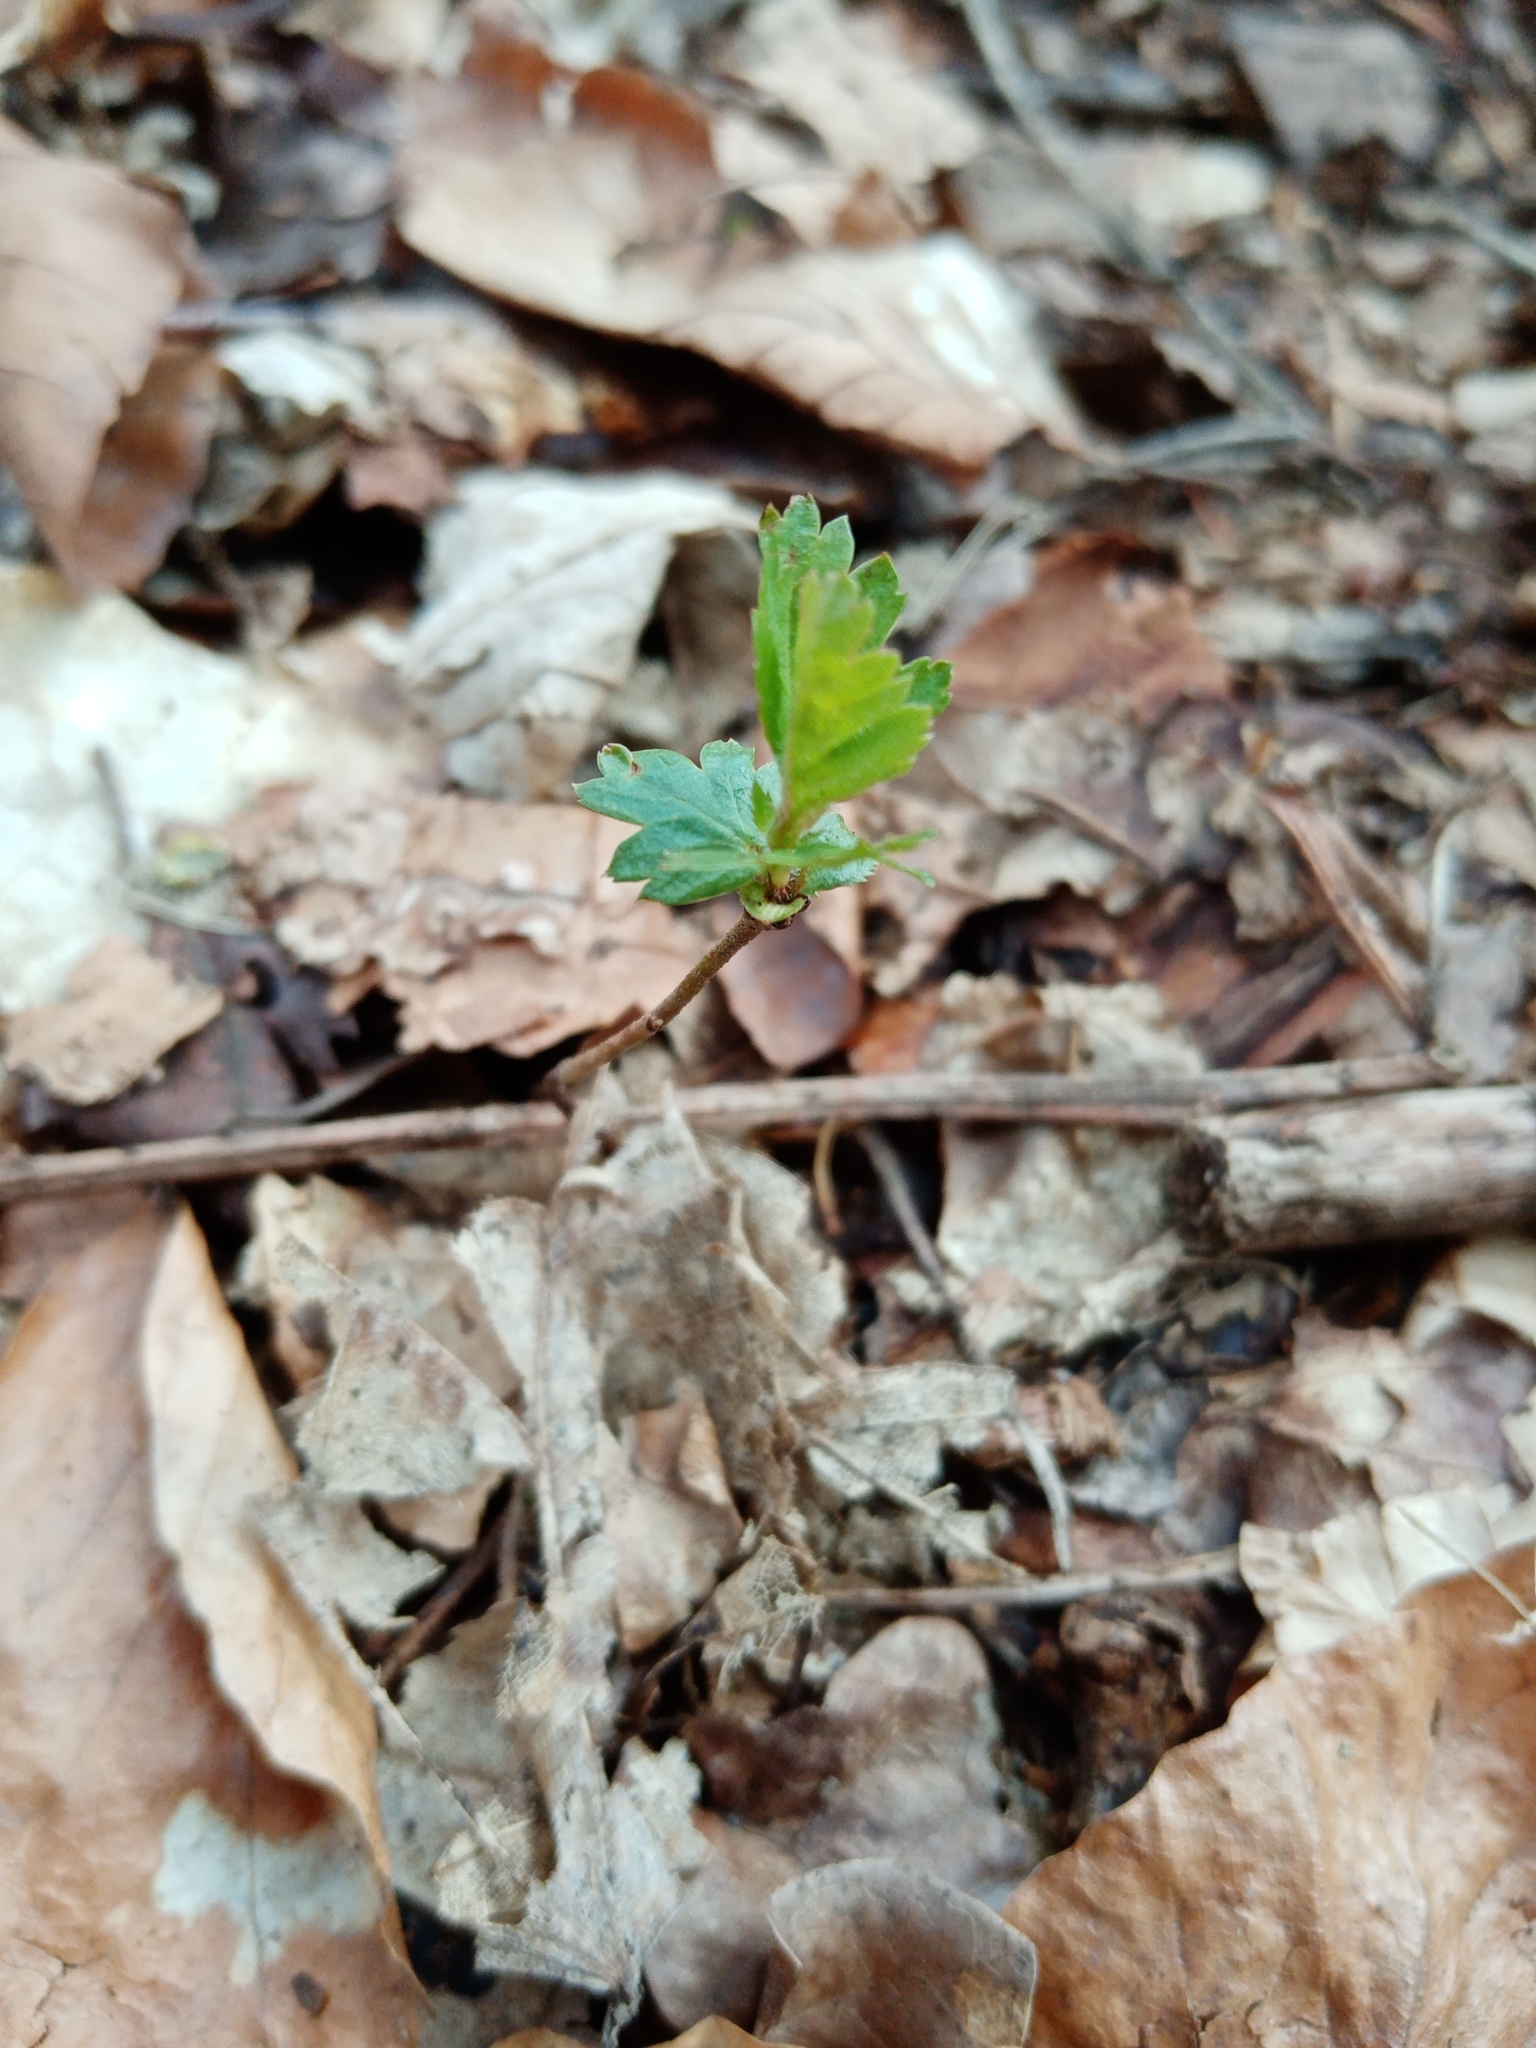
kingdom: Plantae
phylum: Tracheophyta
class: Magnoliopsida
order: Rosales
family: Rosaceae
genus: Crataegus
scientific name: Crataegus monogyna
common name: Hawthorn
